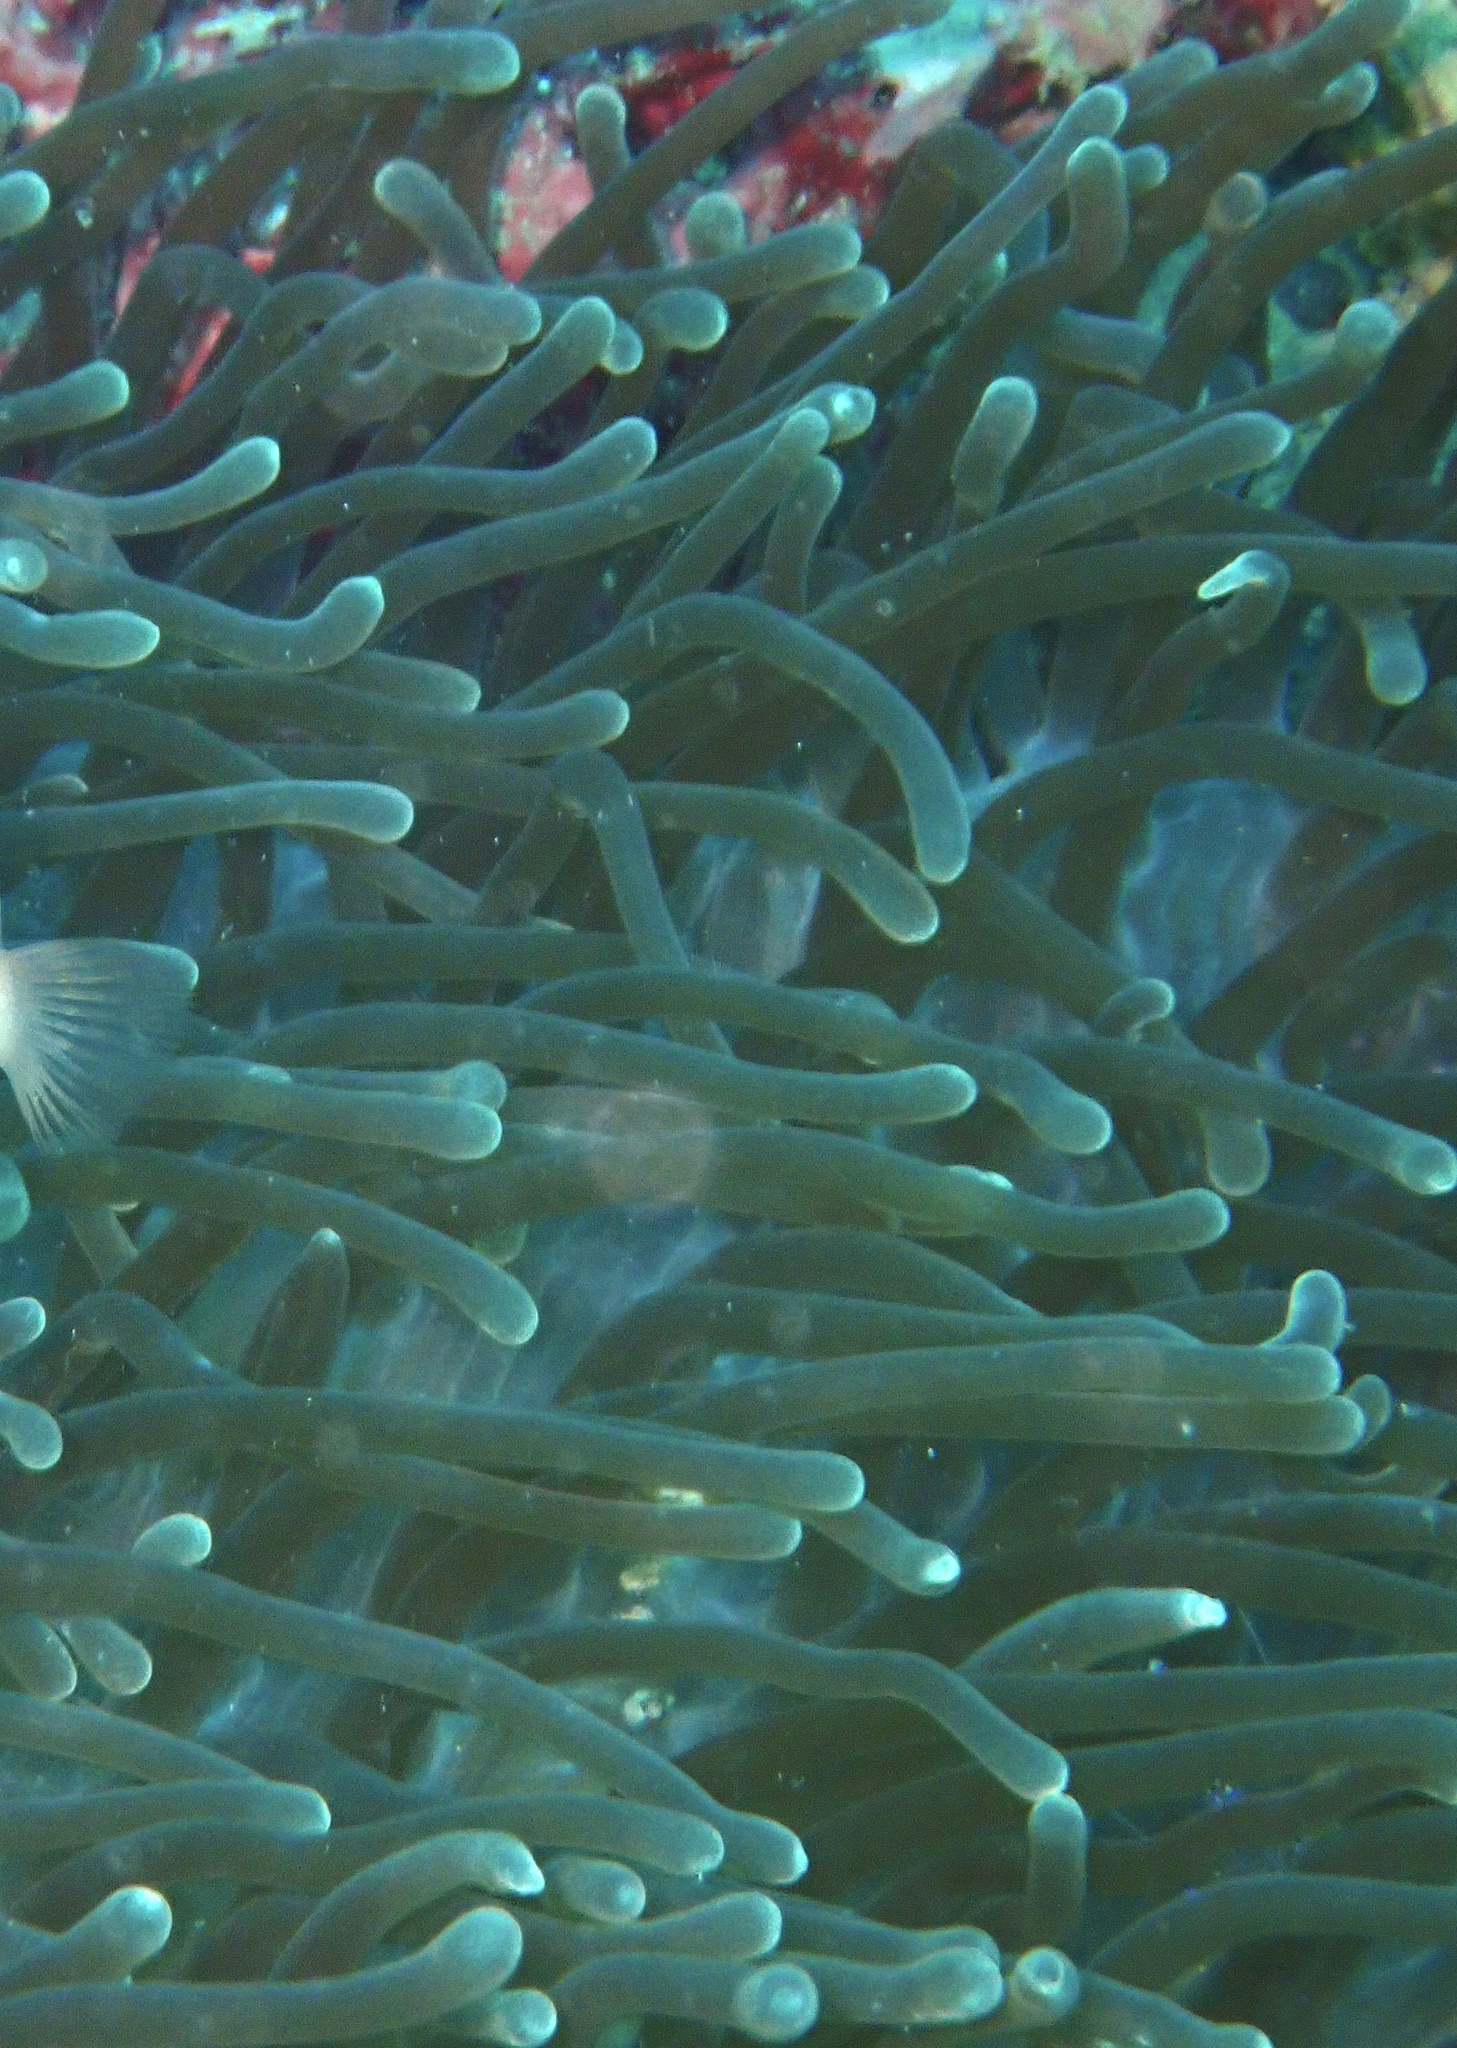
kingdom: Animalia
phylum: Cnidaria
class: Anthozoa
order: Actiniaria
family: Stichodactylidae
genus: Radianthus
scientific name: Radianthus magnifica
